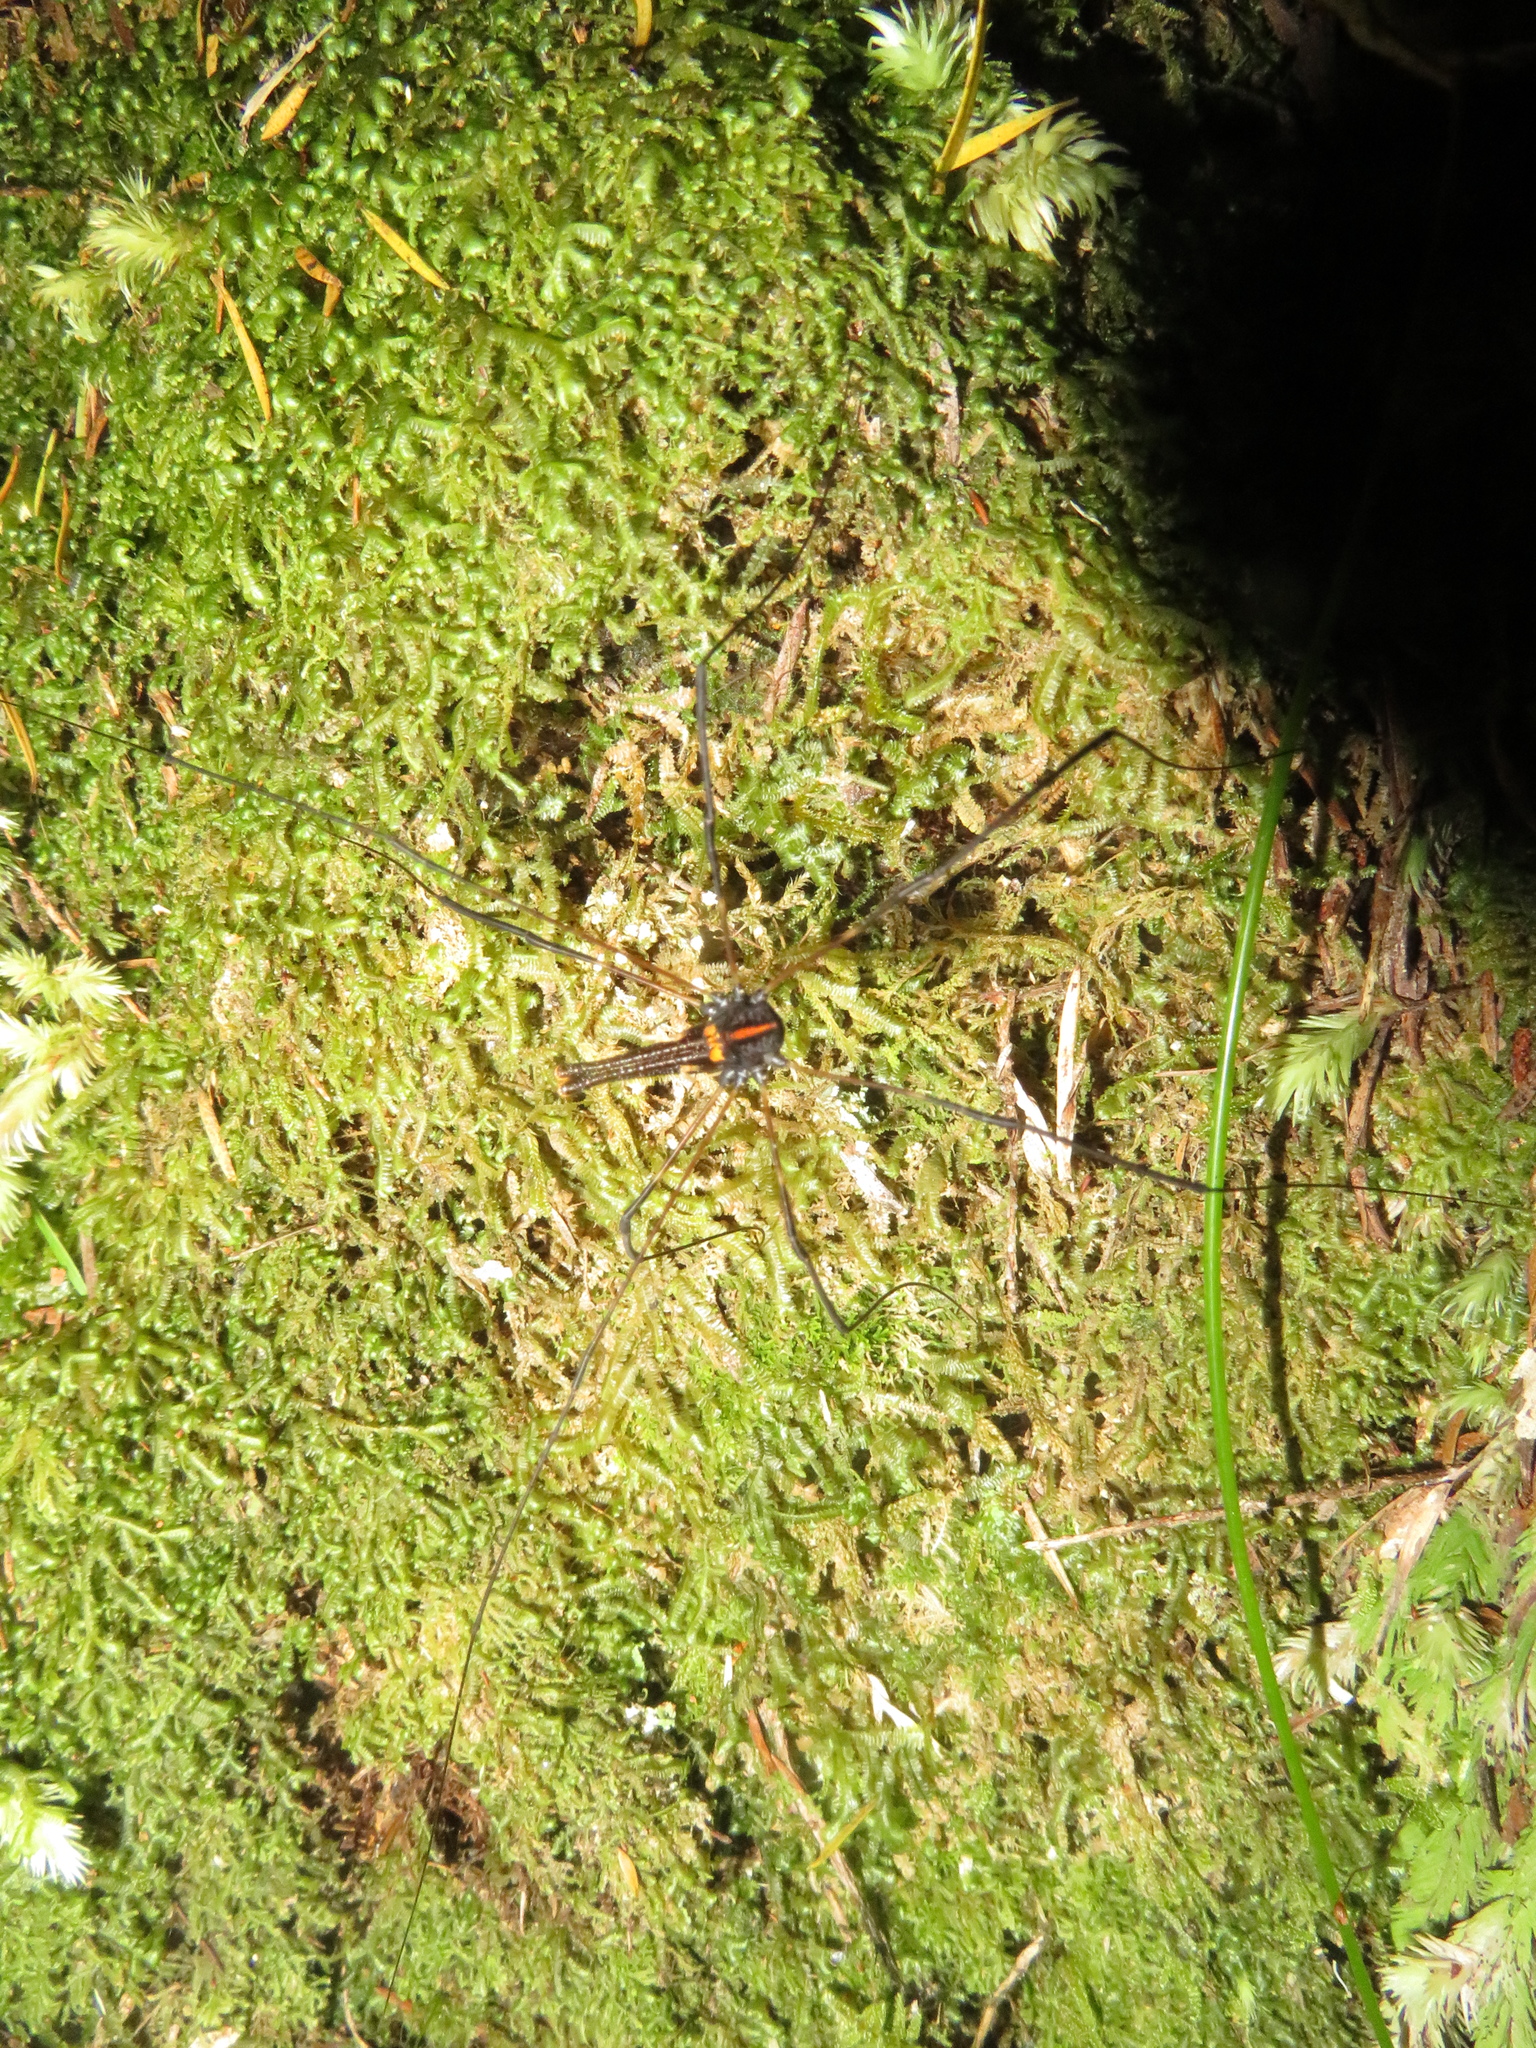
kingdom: Animalia
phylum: Arthropoda
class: Arachnida
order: Opiliones
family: Neopilionidae
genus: Forsteropsalis
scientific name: Forsteropsalis pureora
